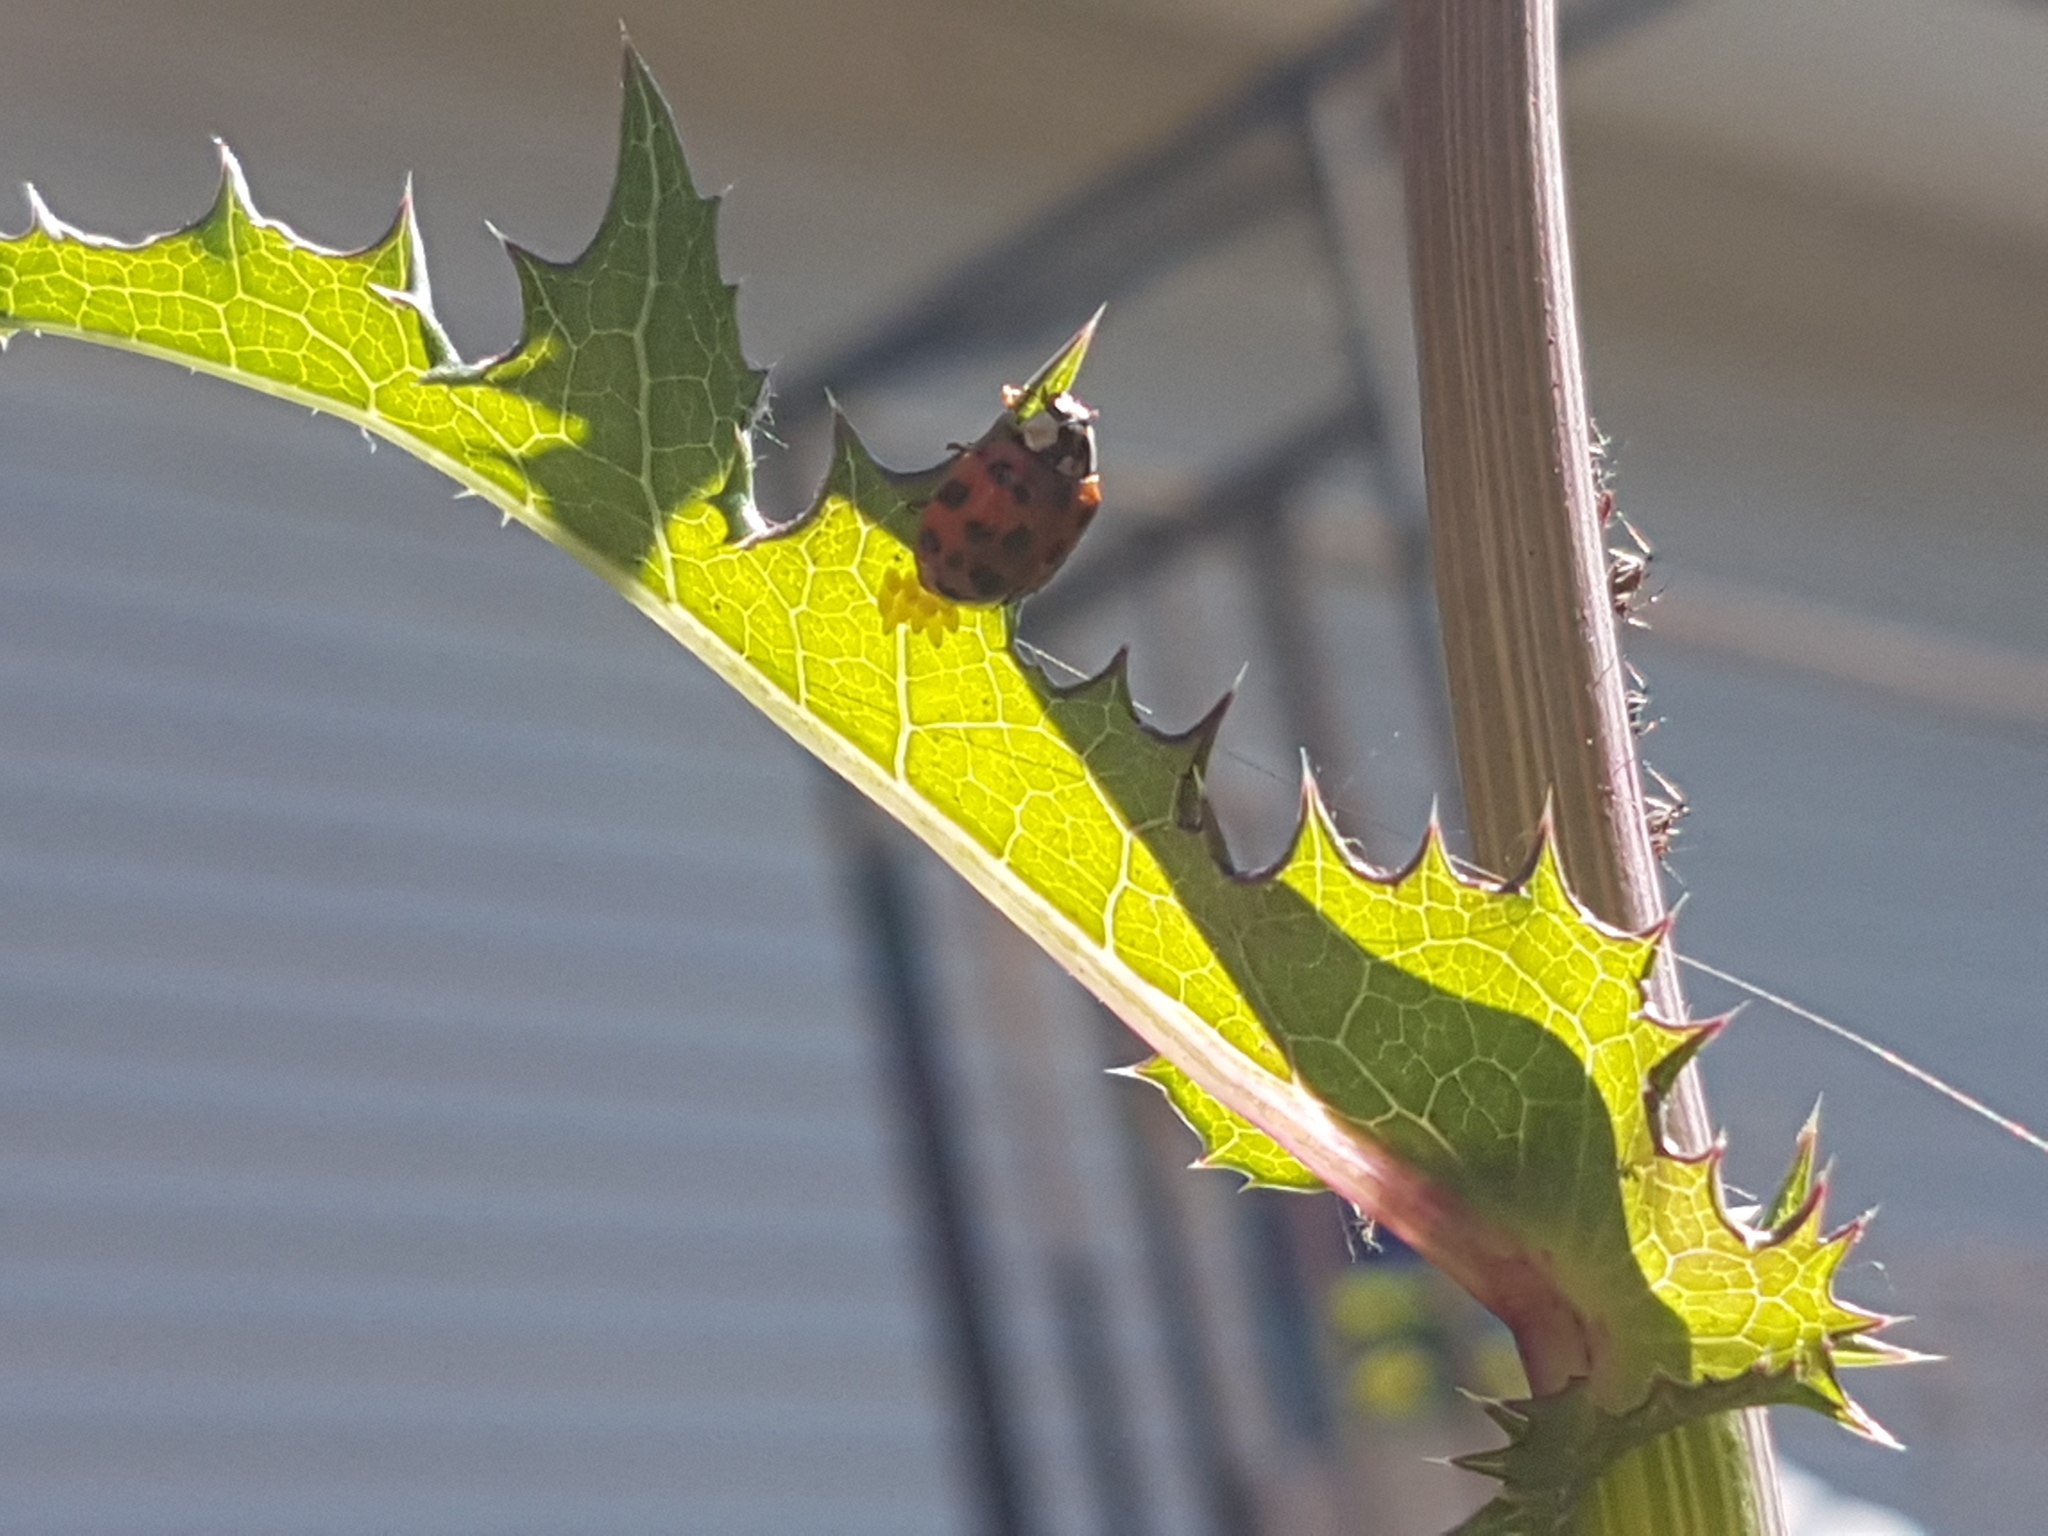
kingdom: Animalia
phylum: Arthropoda
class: Insecta
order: Coleoptera
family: Coccinellidae
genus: Harmonia
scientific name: Harmonia axyridis
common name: Harlequin ladybird
